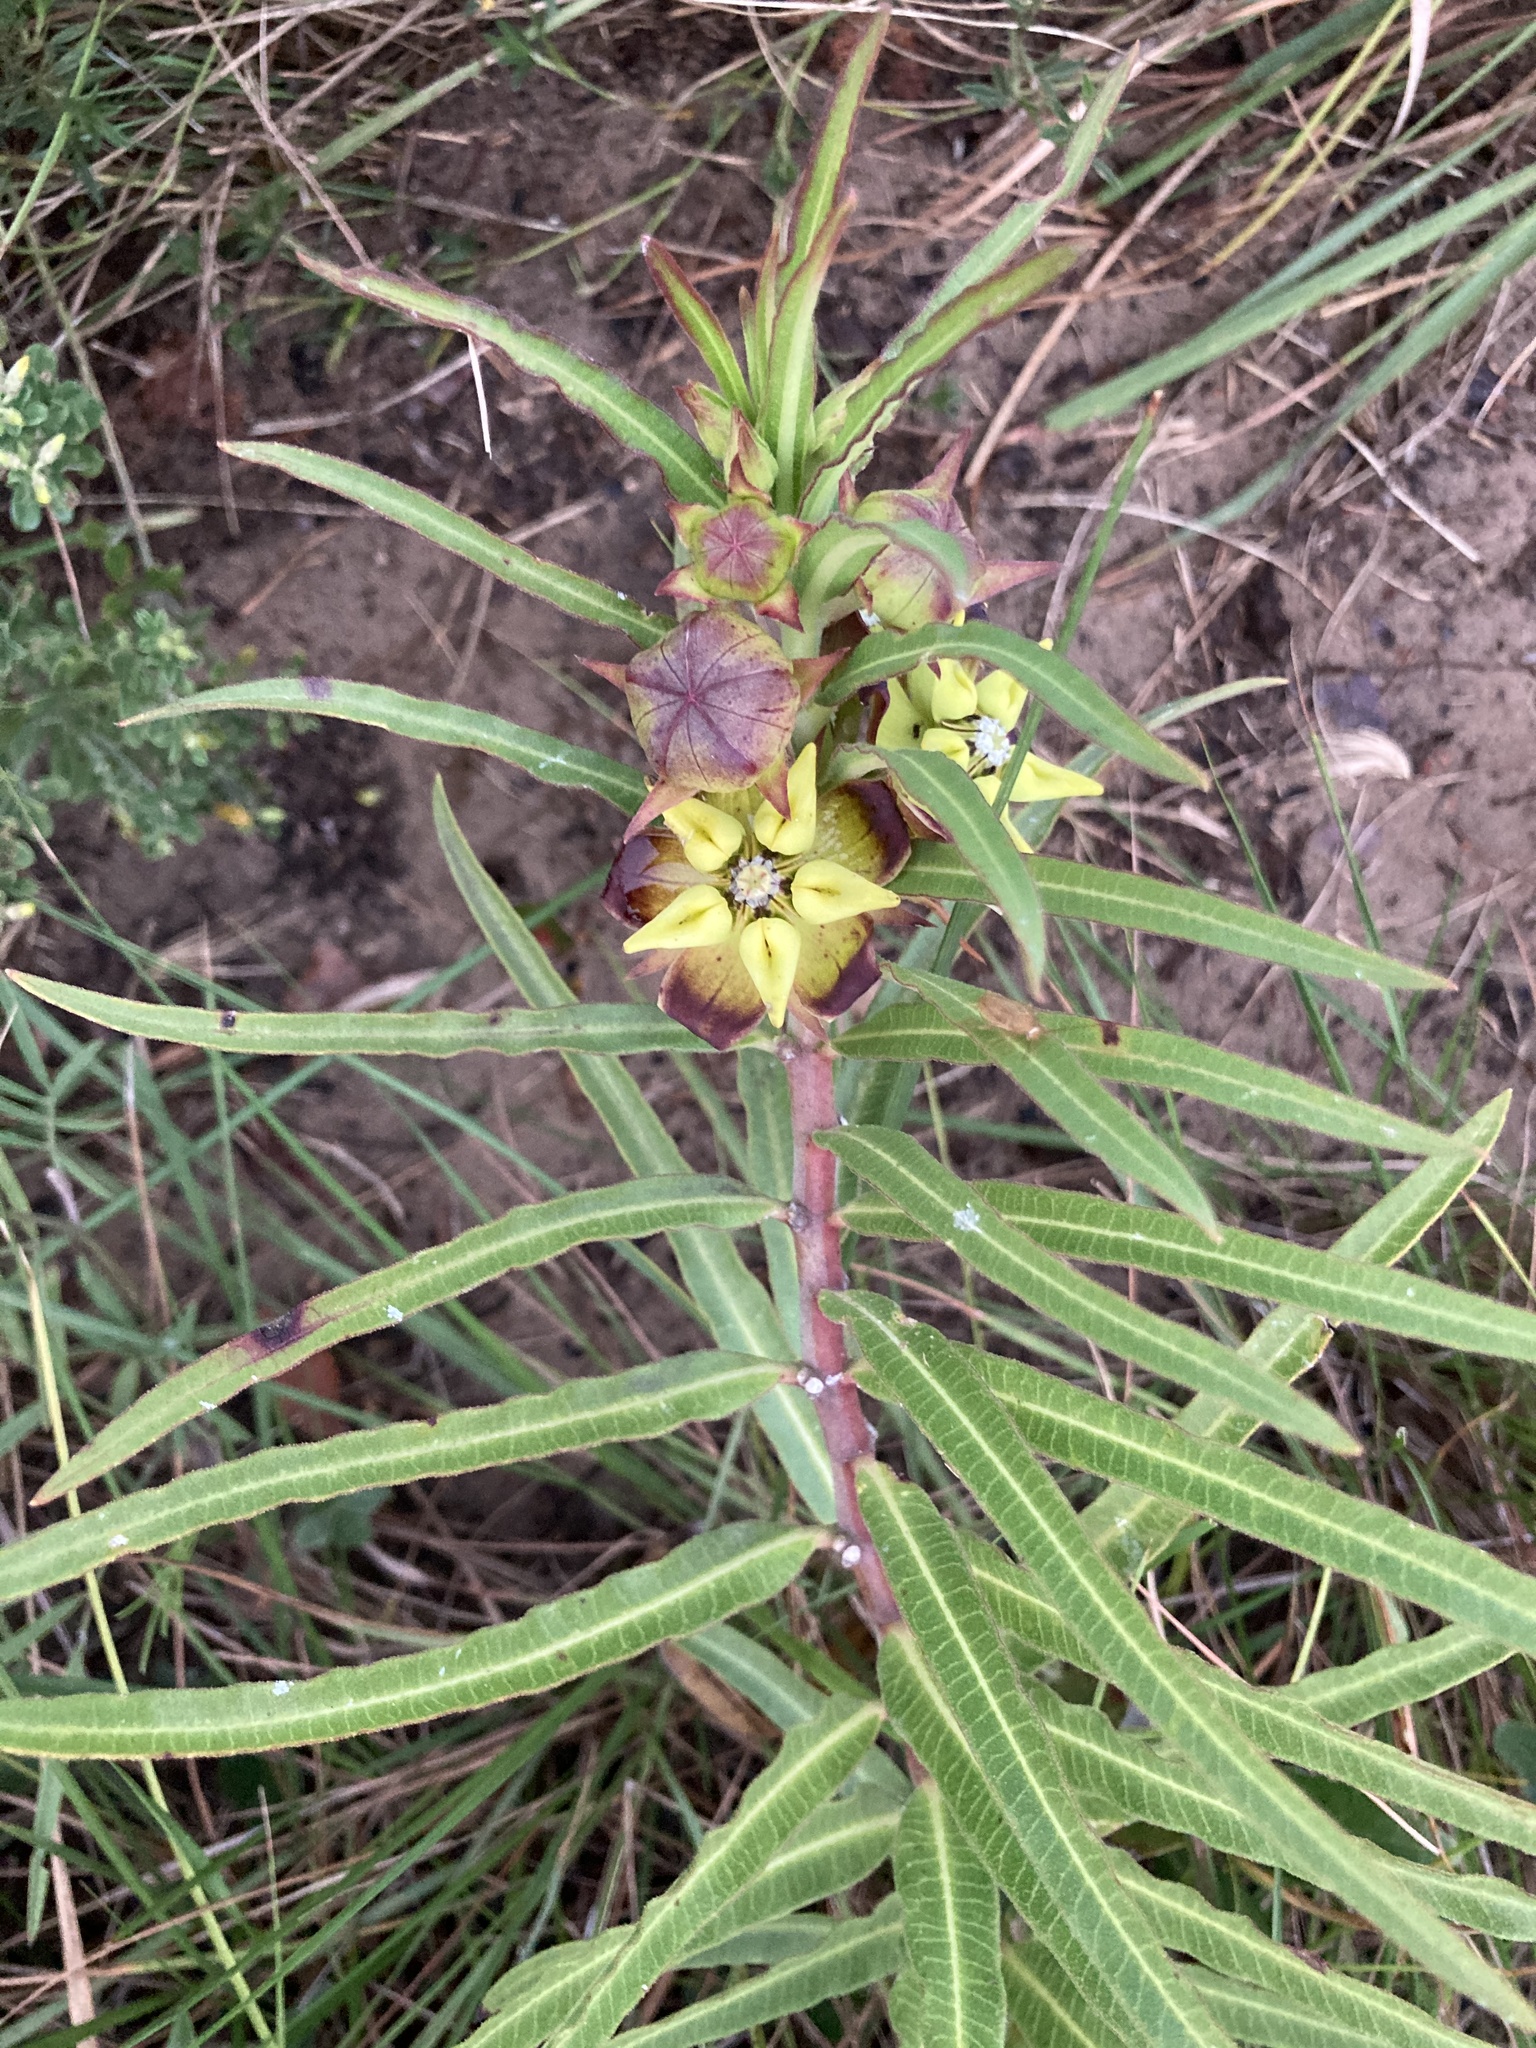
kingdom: Plantae
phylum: Tracheophyta
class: Magnoliopsida
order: Gentianales
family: Apocynaceae
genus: Pachycarpus
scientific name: Pachycarpus concolor
